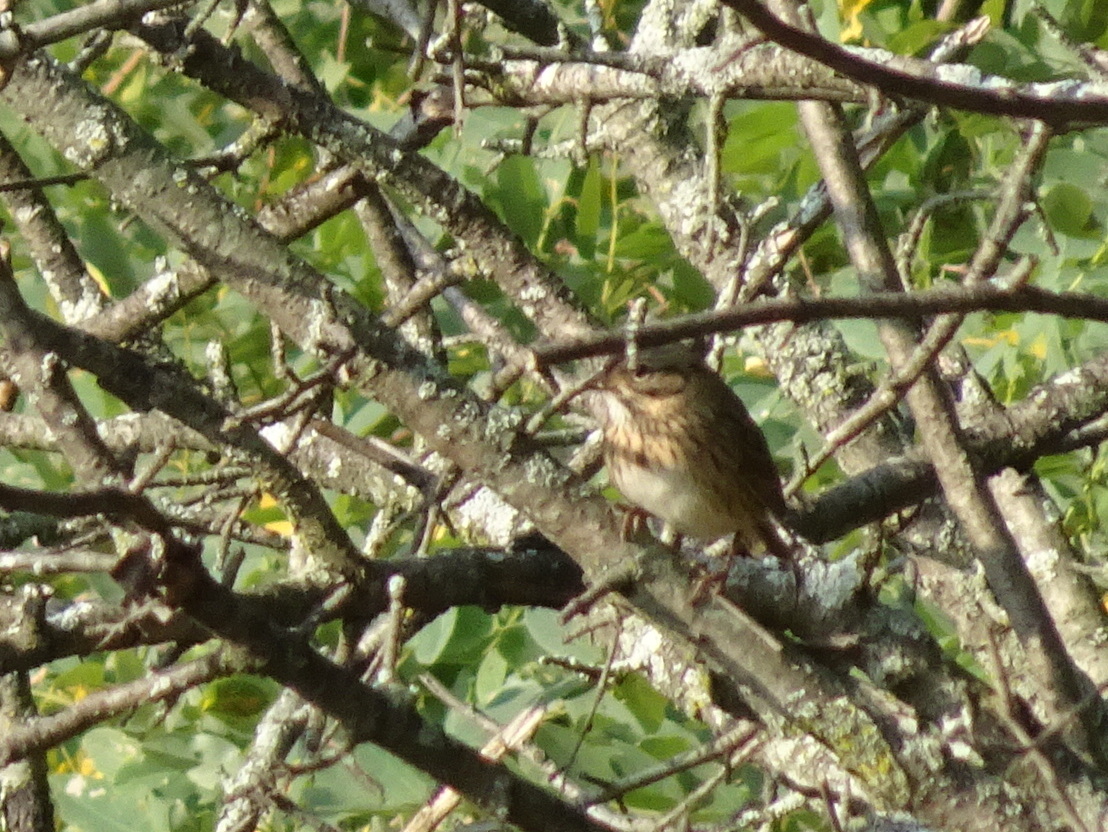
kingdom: Animalia
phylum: Chordata
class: Aves
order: Passeriformes
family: Passerellidae
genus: Melospiza
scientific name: Melospiza lincolnii
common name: Lincoln's sparrow
